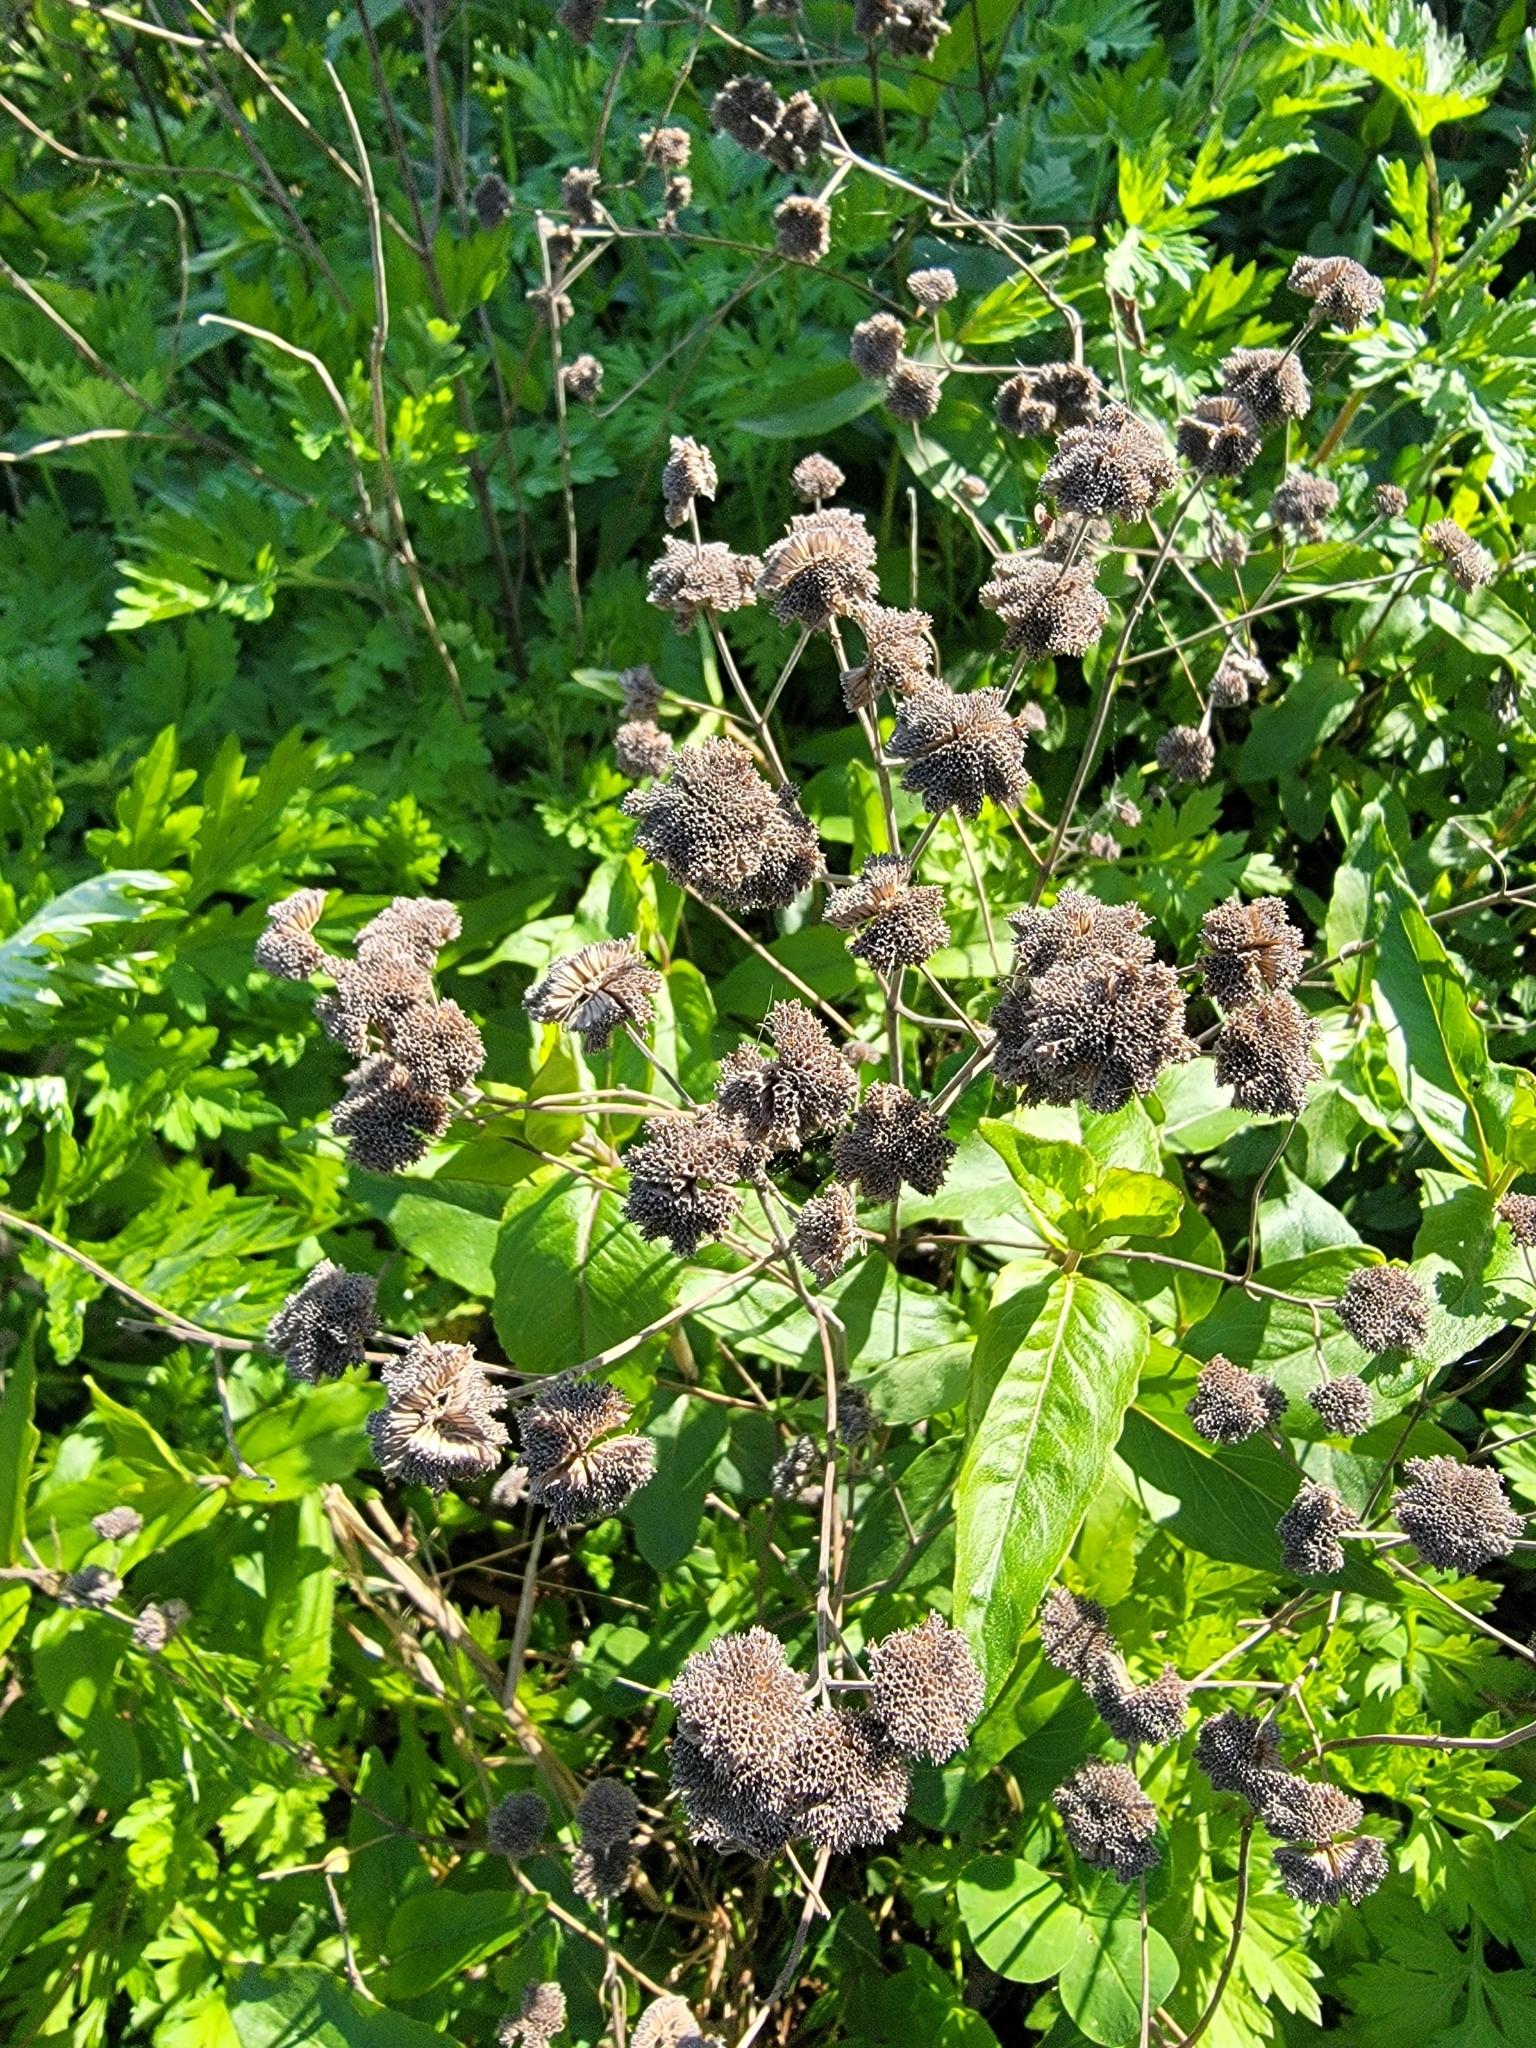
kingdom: Plantae
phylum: Tracheophyta
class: Magnoliopsida
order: Lamiales
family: Lamiaceae
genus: Pycnanthemum
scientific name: Pycnanthemum muticum
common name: Blunt mountain-mint
